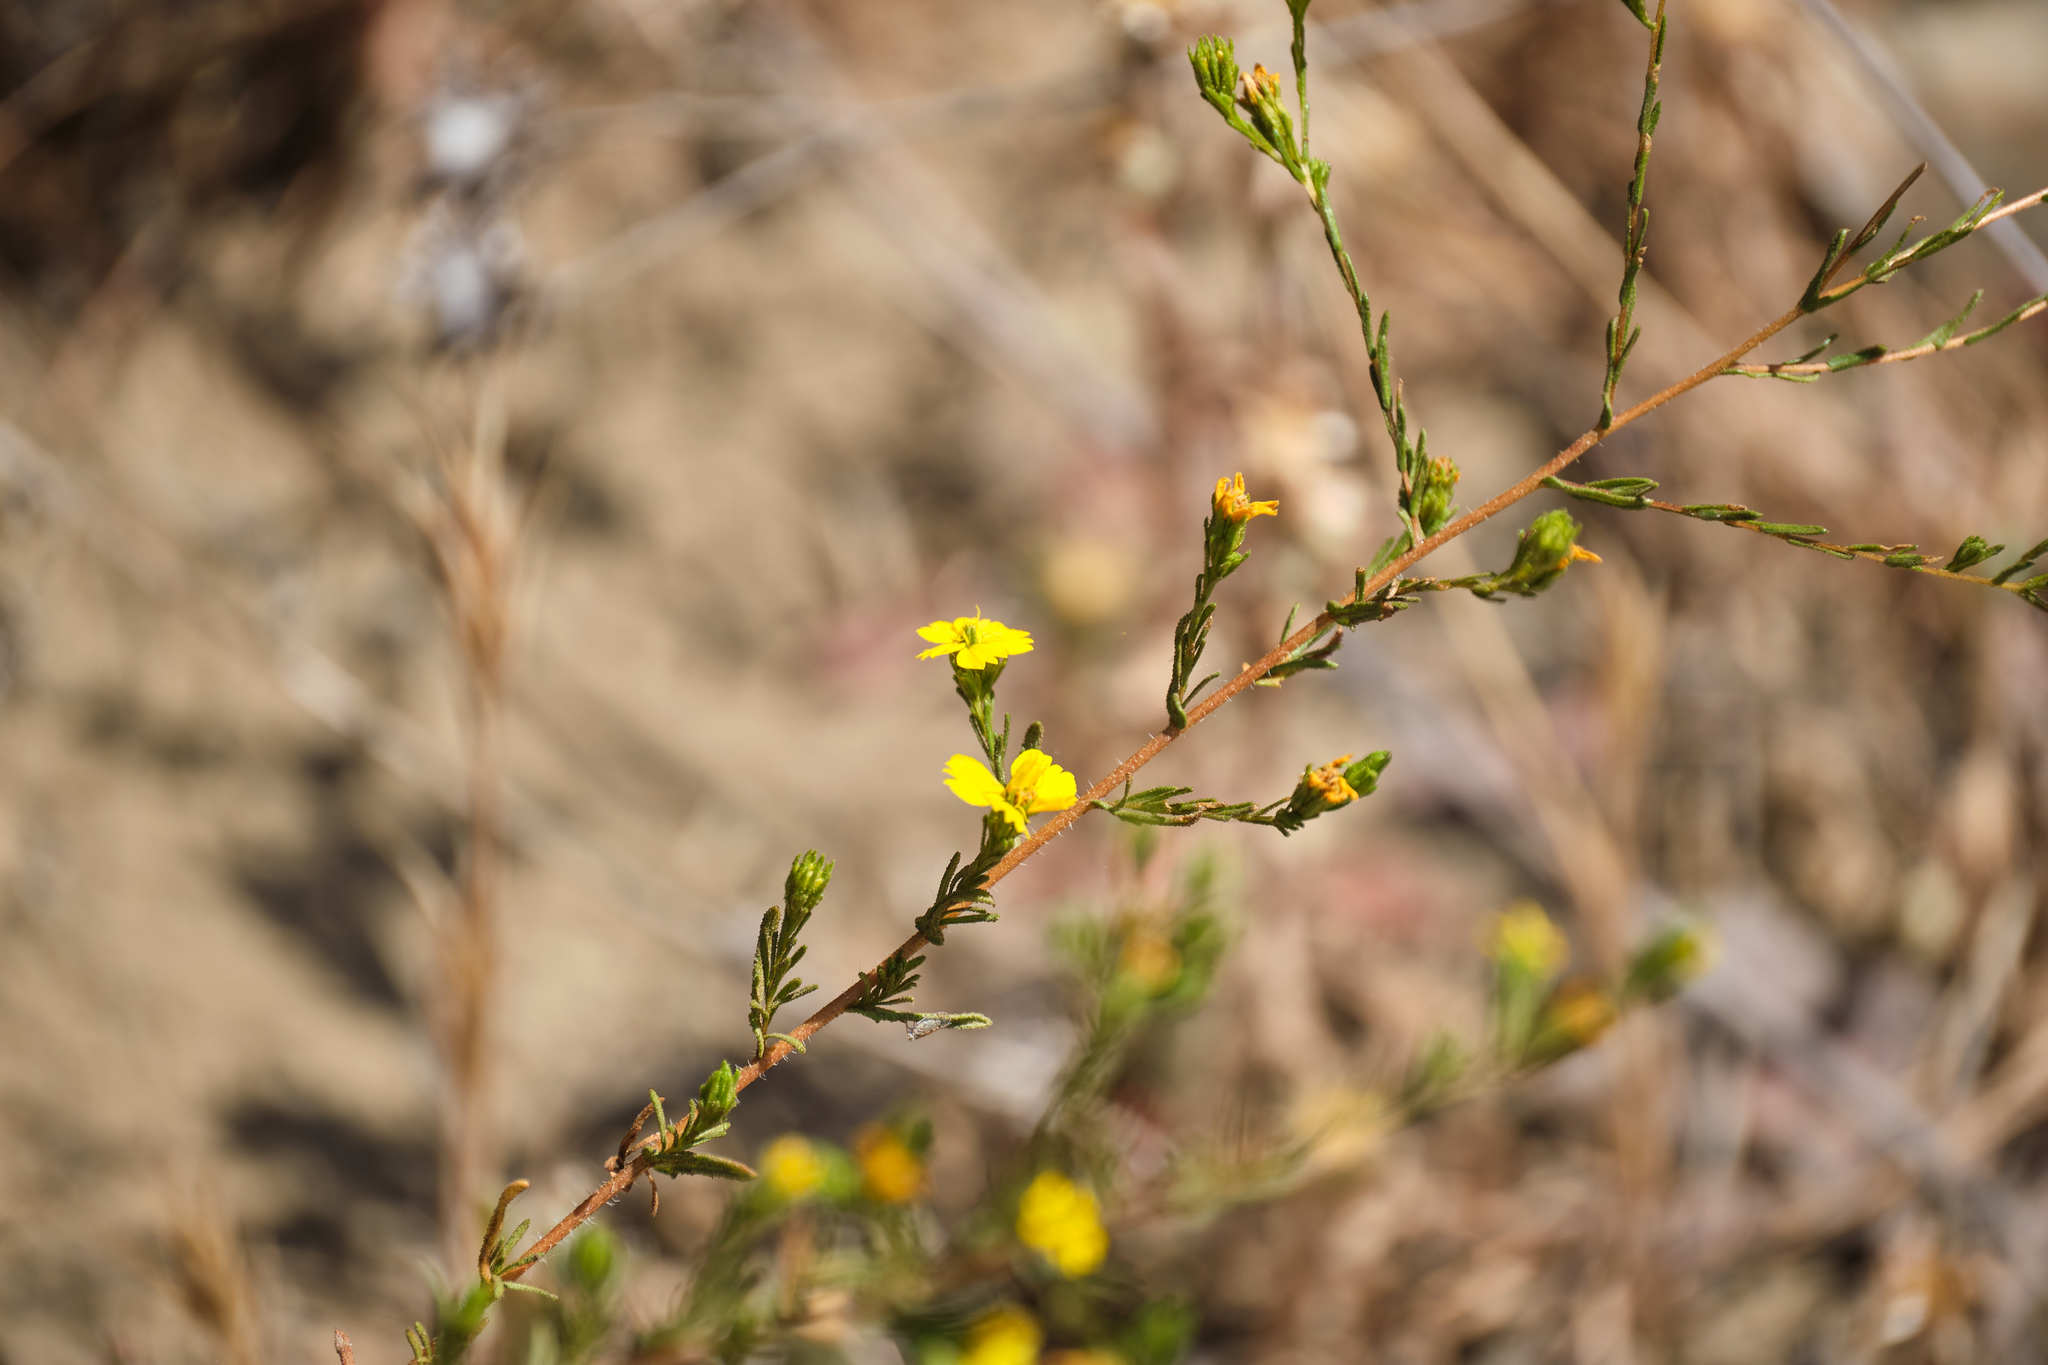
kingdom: Plantae
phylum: Tracheophyta
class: Magnoliopsida
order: Asterales
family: Asteraceae
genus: Deinandra
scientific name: Deinandra fasciculata
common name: Clustered tarweed
